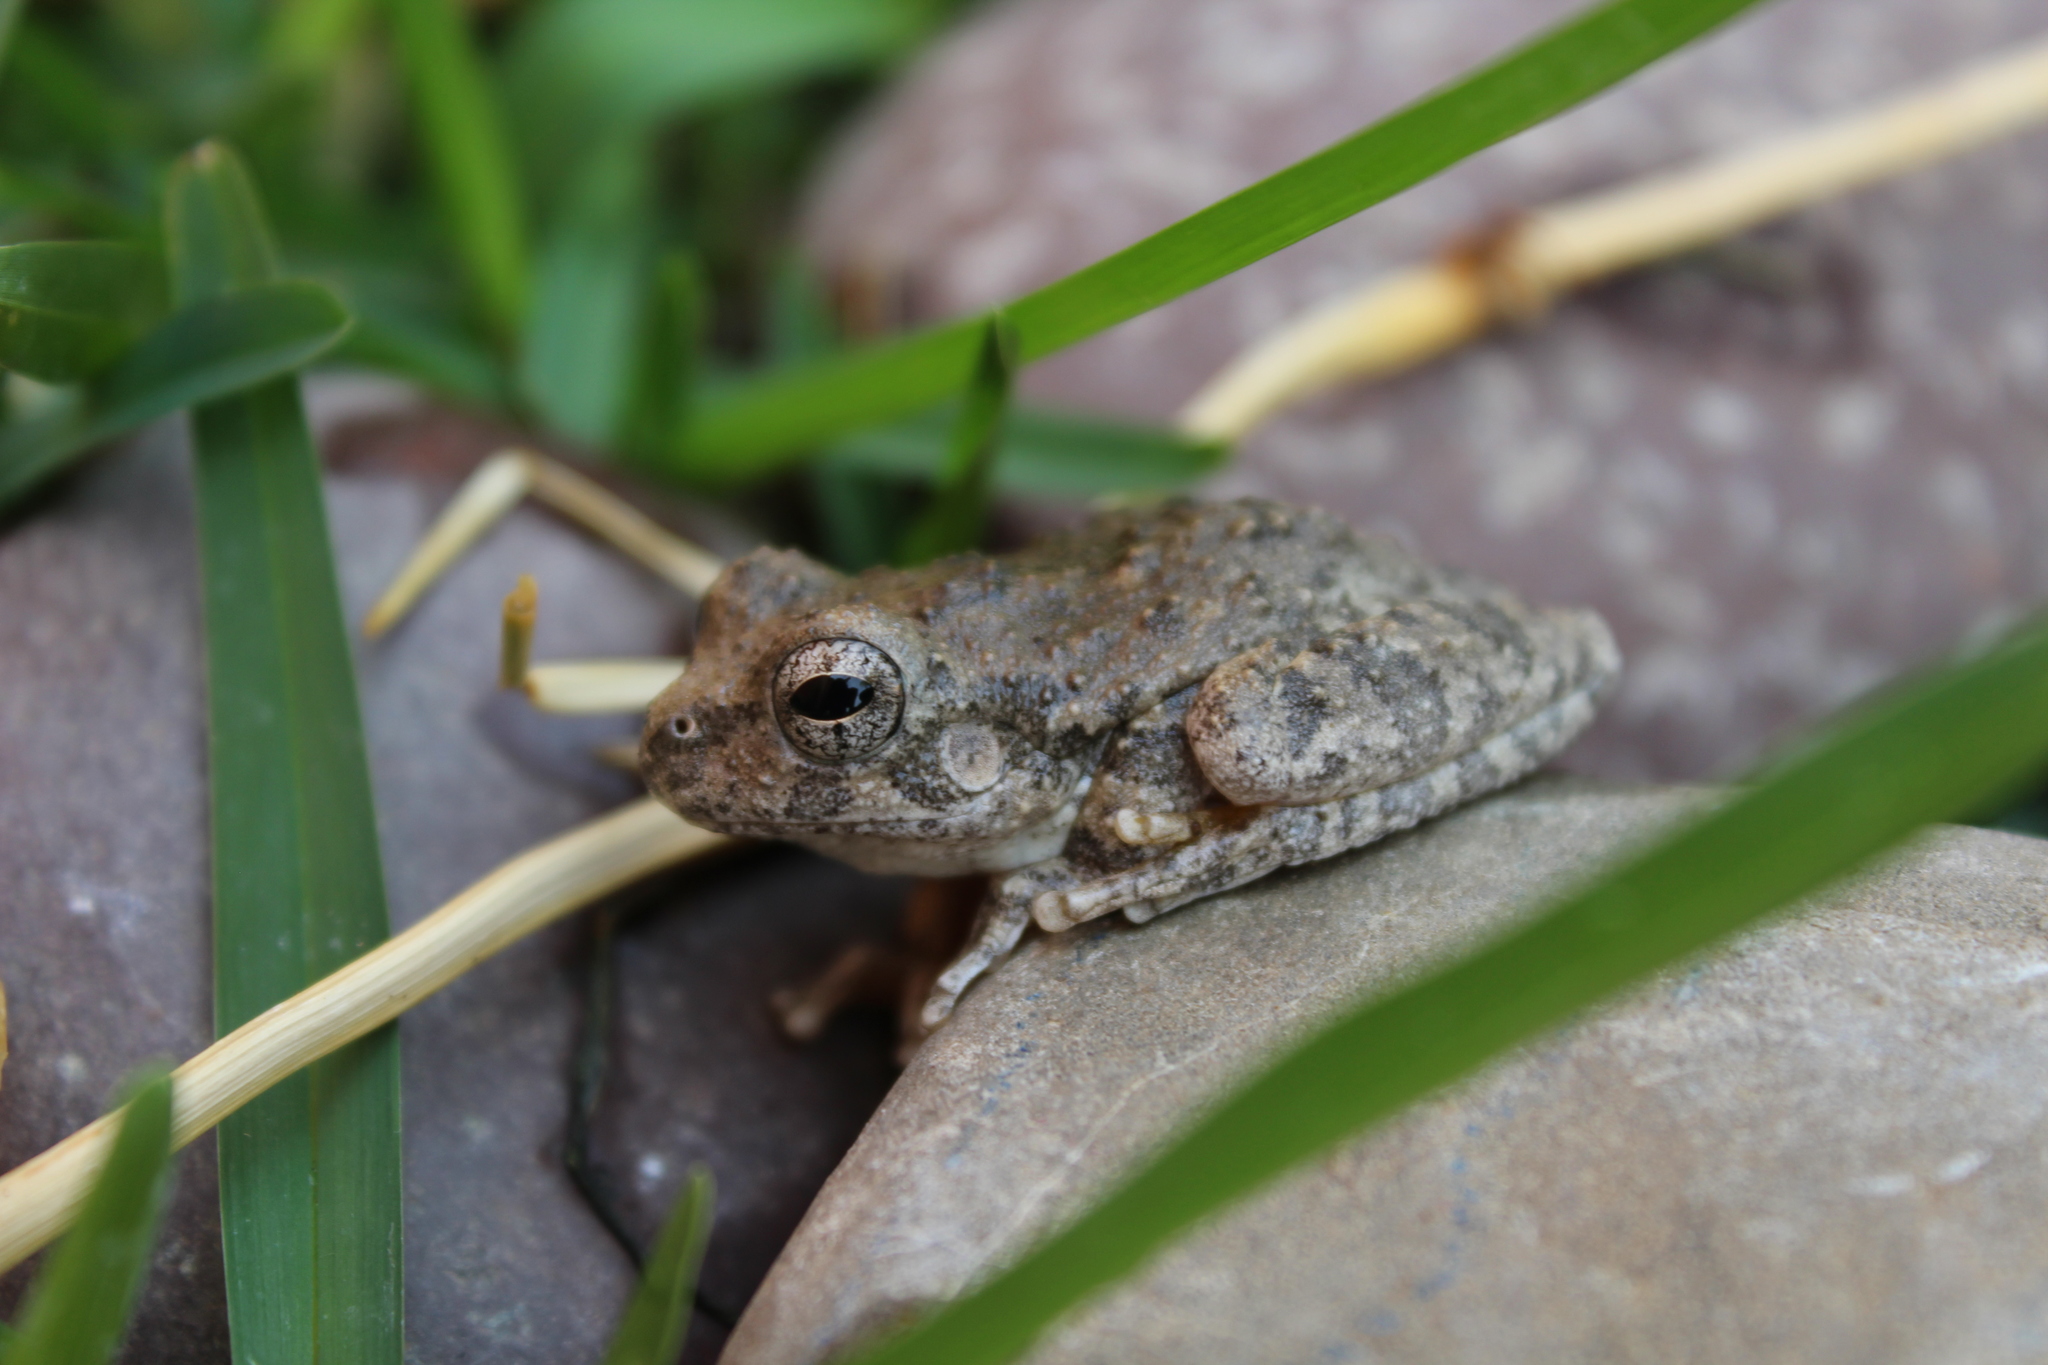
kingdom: Animalia
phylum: Chordata
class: Amphibia
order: Anura
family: Hylidae
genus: Dryophytes
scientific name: Dryophytes arenicolor
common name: Canyon treefrog
